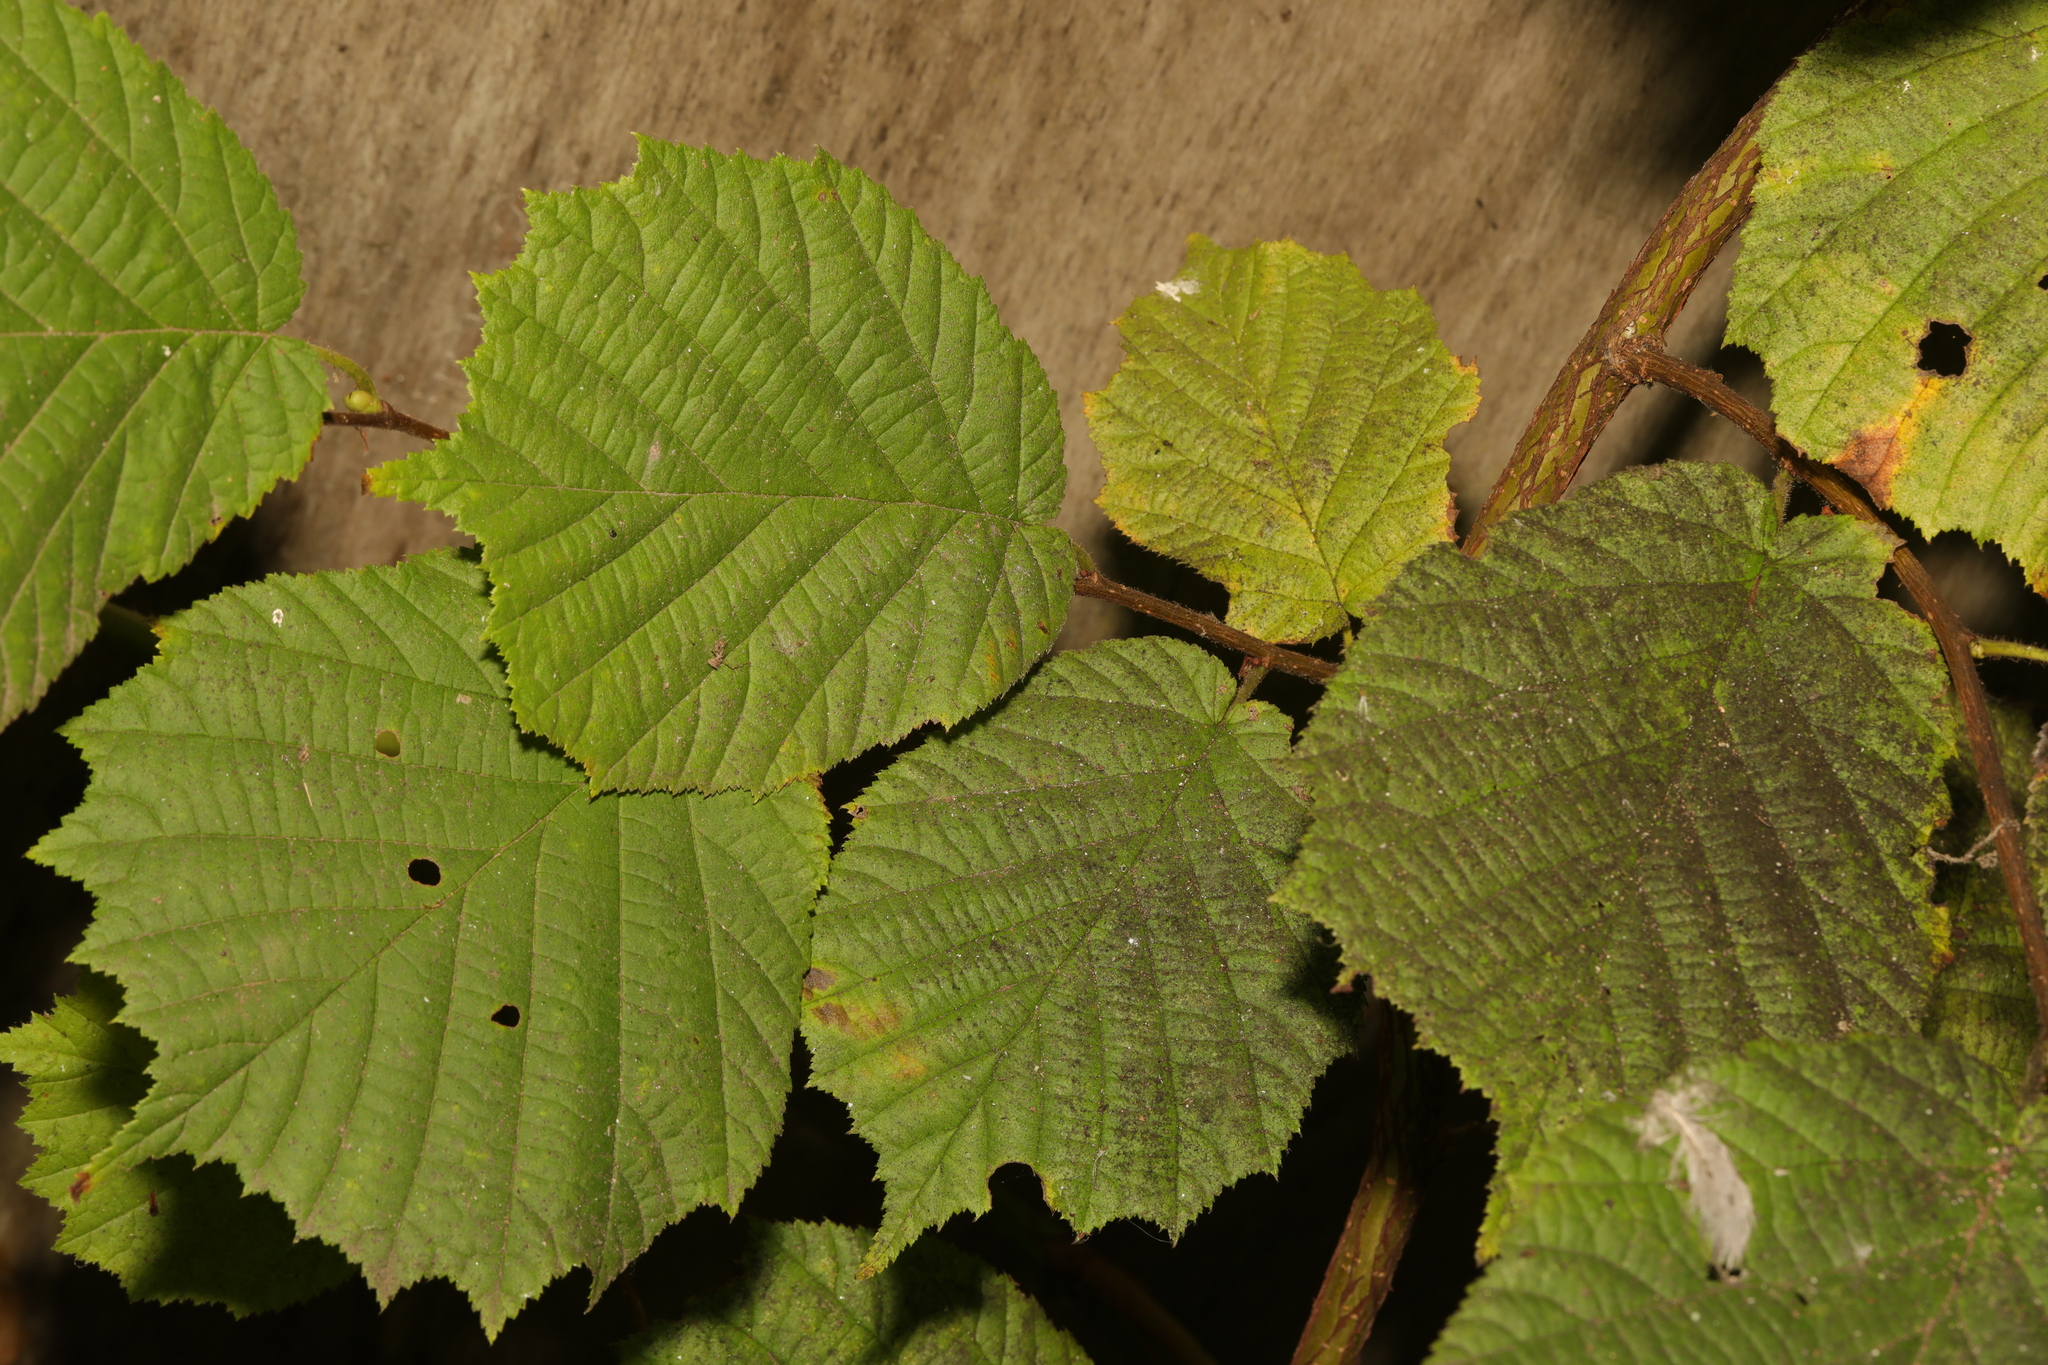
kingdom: Plantae
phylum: Tracheophyta
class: Magnoliopsida
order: Fagales
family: Betulaceae
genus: Corylus
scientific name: Corylus avellana
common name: European hazel
